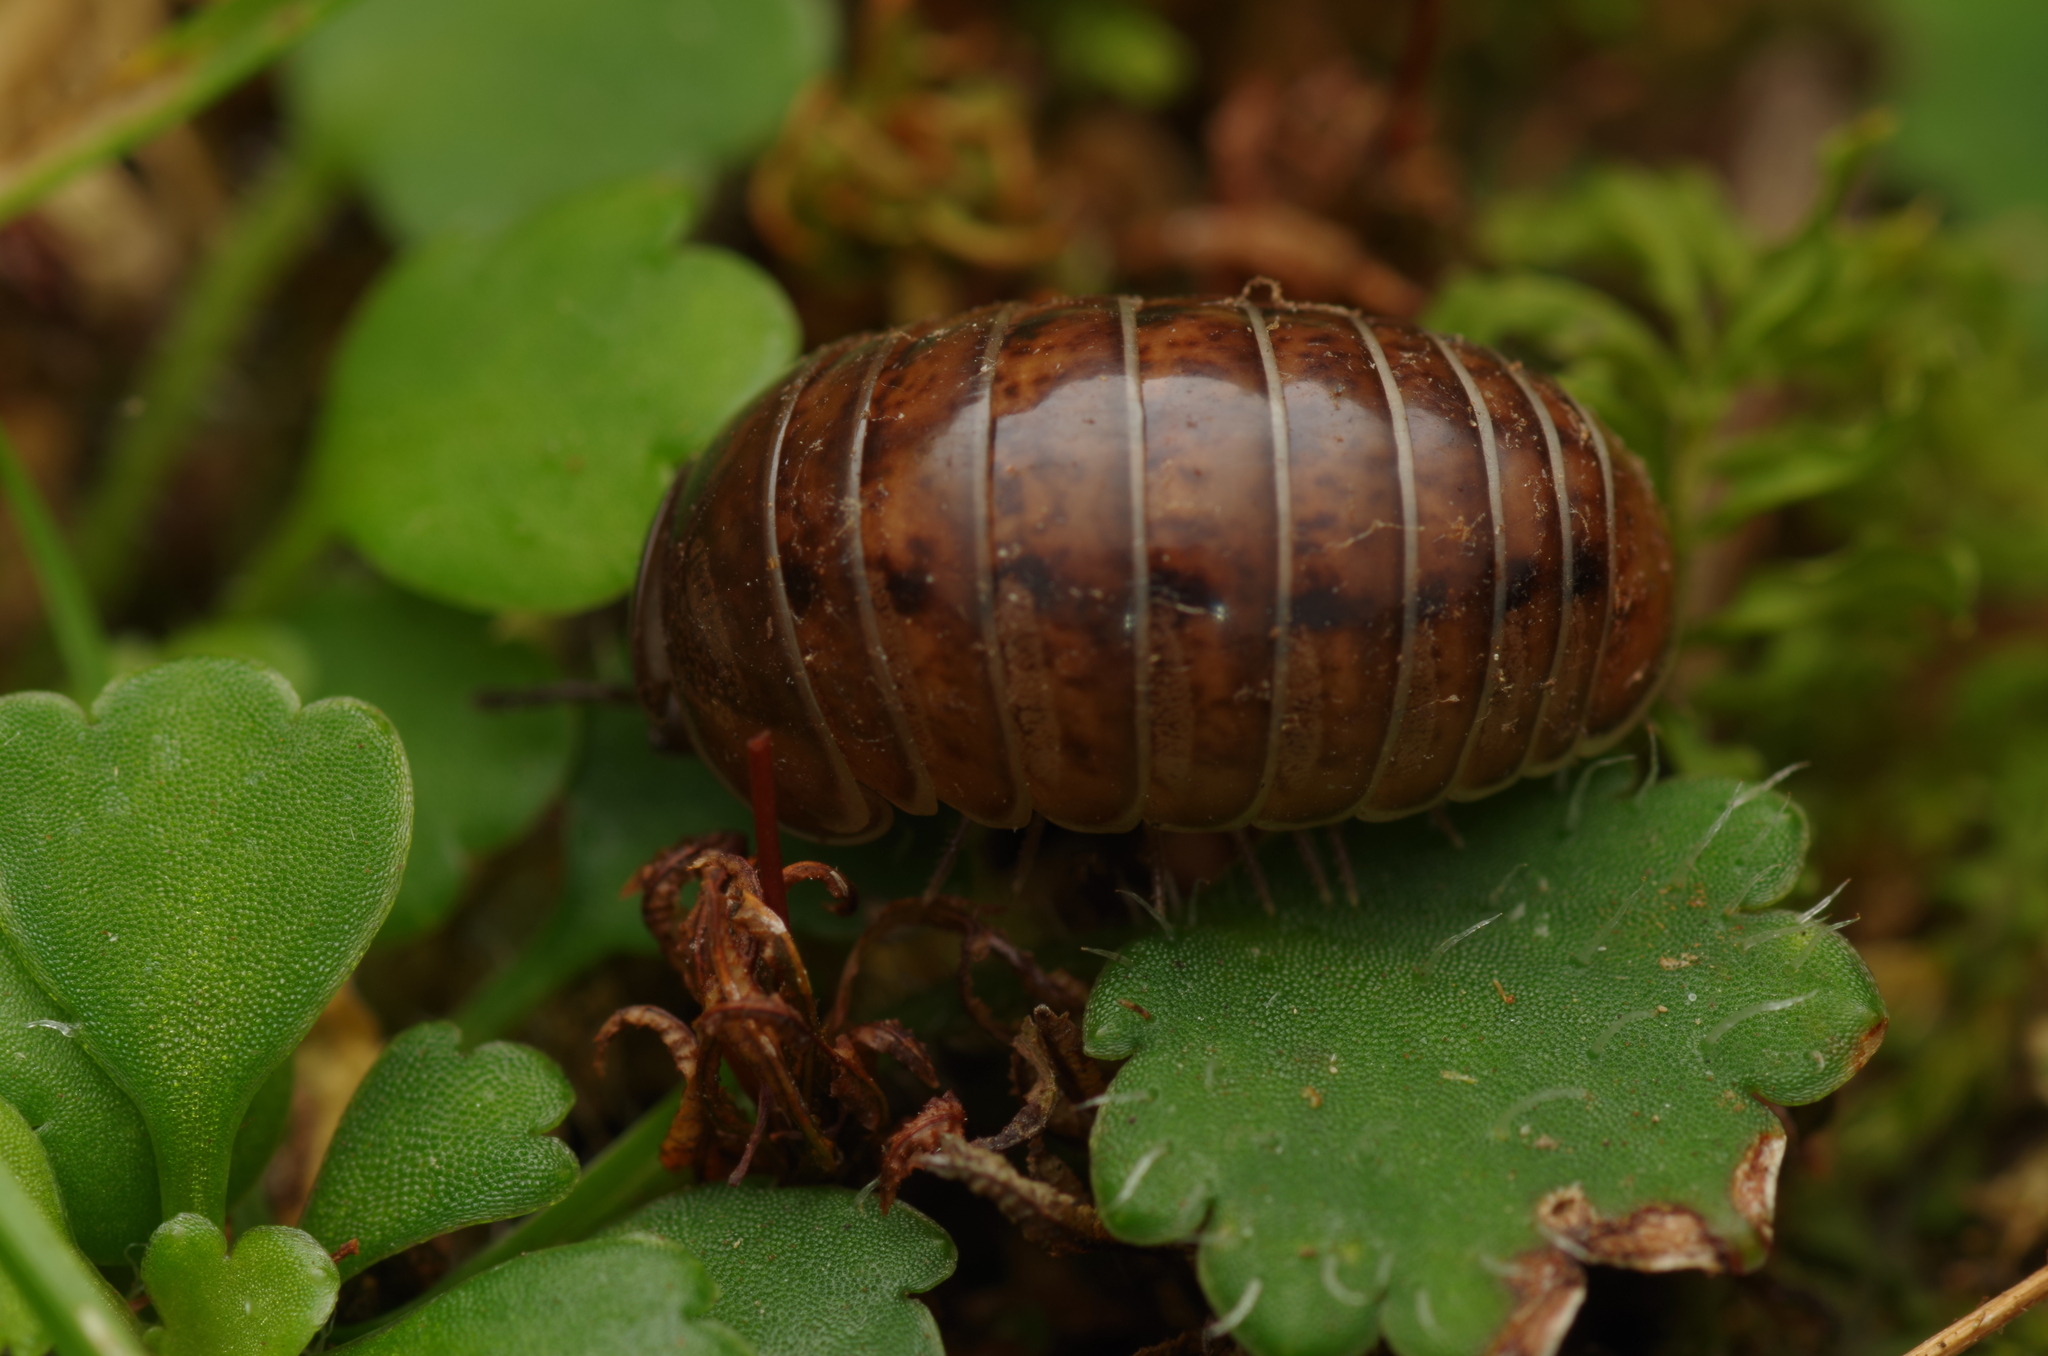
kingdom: Animalia
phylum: Arthropoda
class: Diplopoda
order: Glomerida
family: Protoglomeridae
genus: Protoglomeris
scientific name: Protoglomeris vasconica
